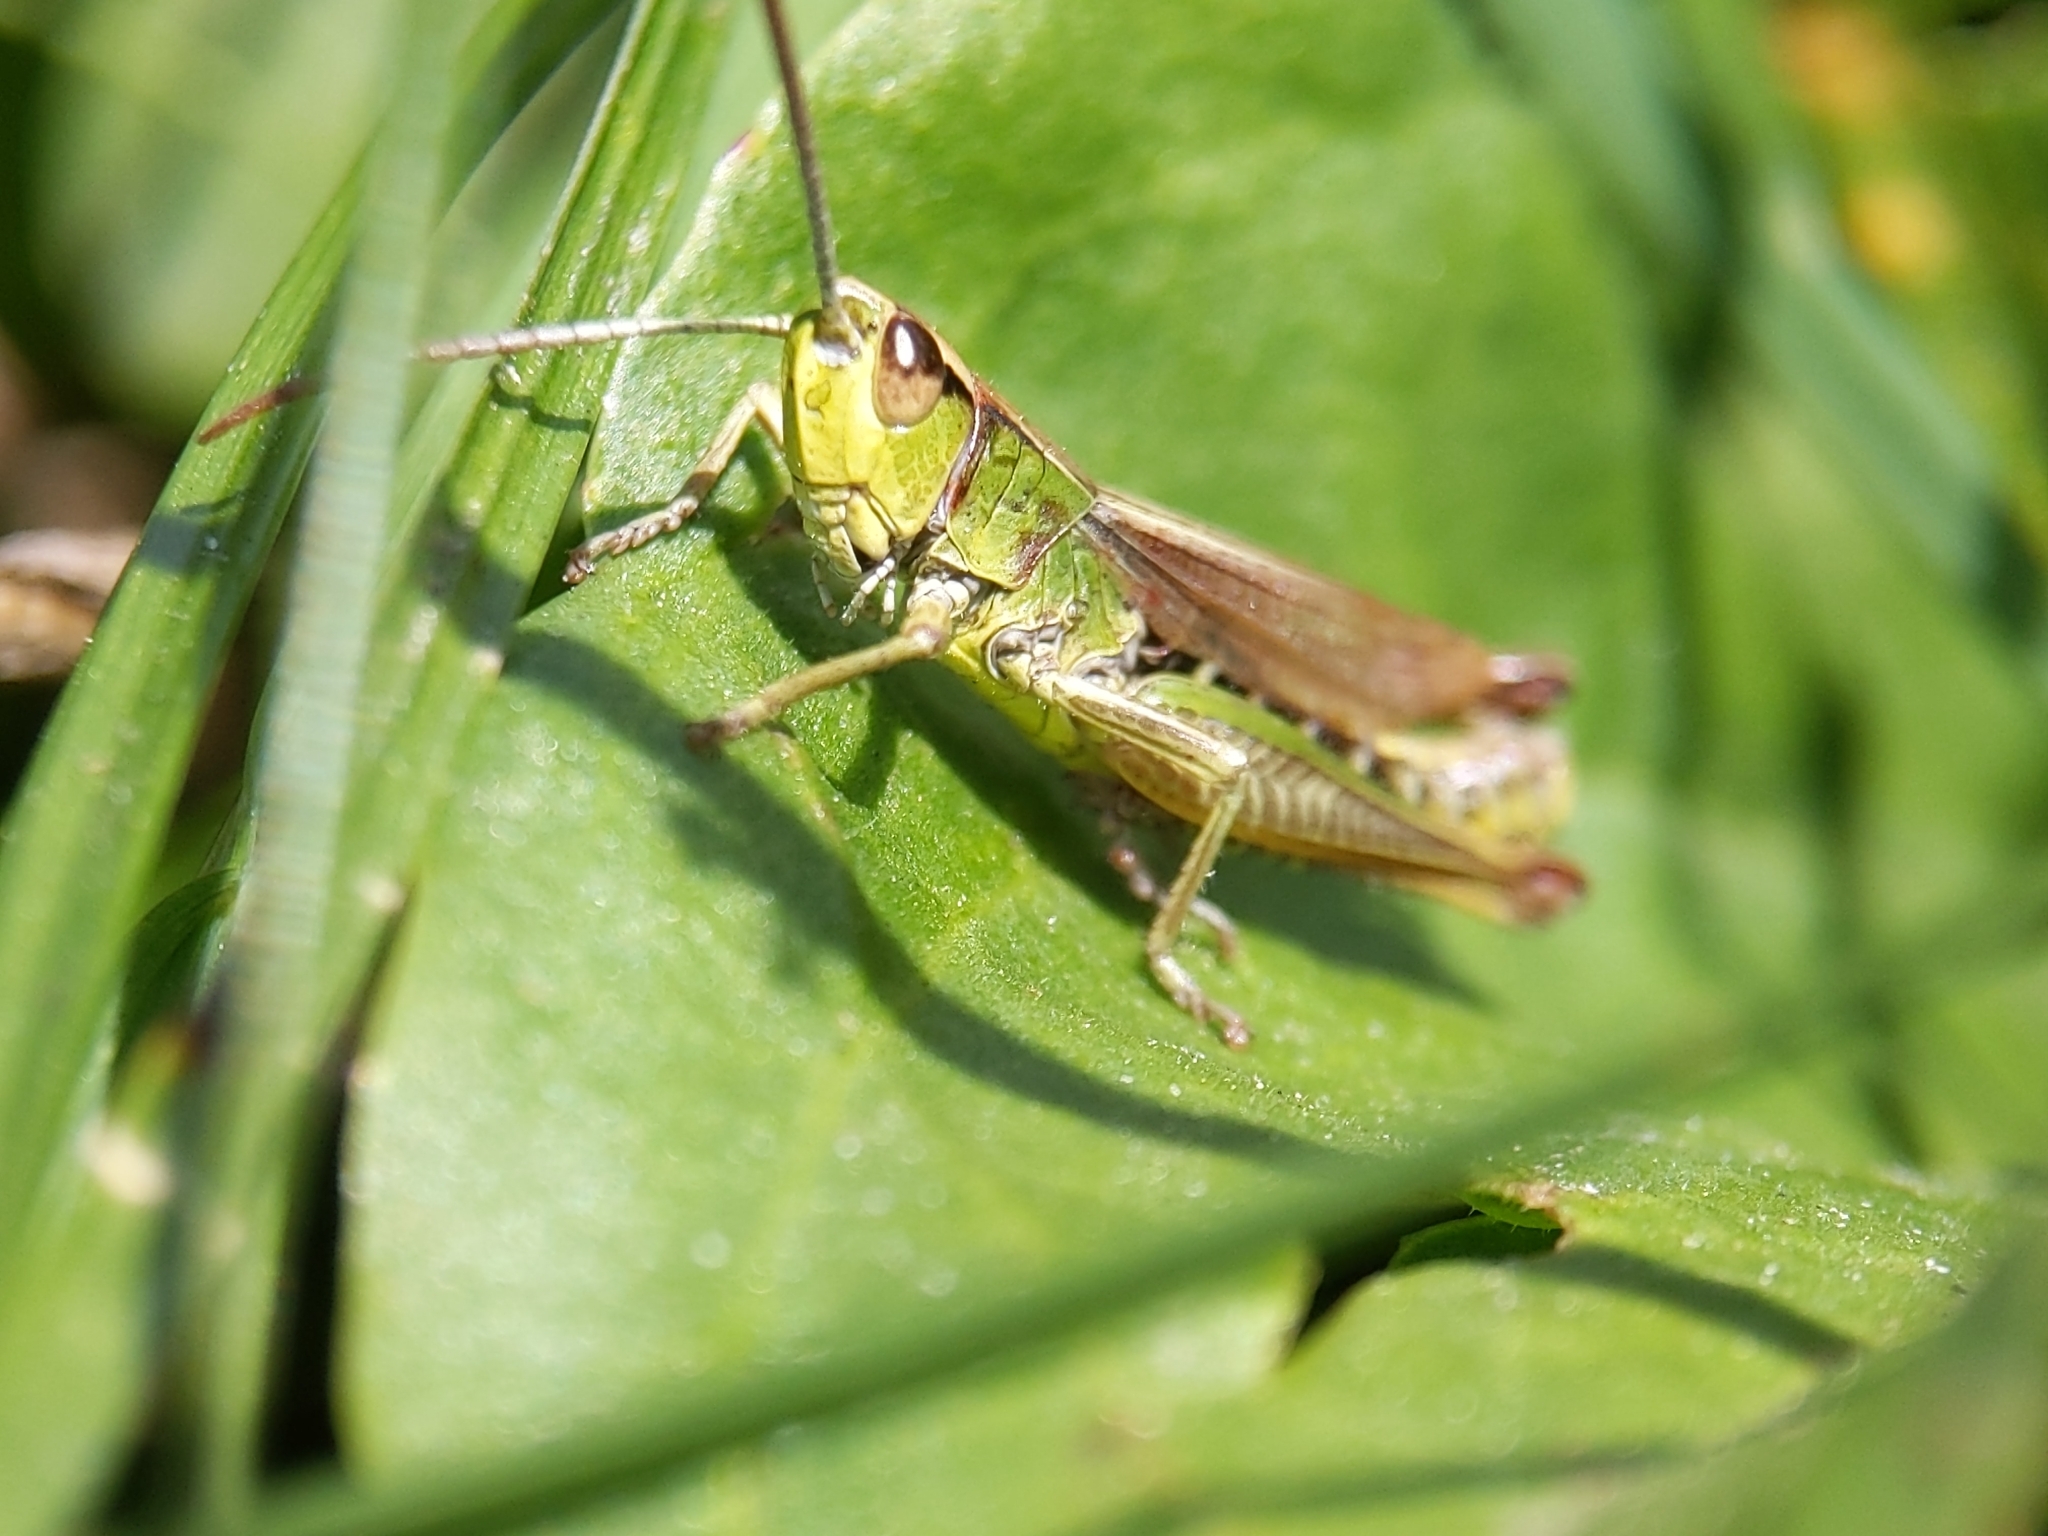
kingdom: Animalia
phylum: Arthropoda
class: Insecta
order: Orthoptera
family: Acrididae
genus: Pseudochorthippus
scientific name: Pseudochorthippus parallelus
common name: Meadow grasshopper
